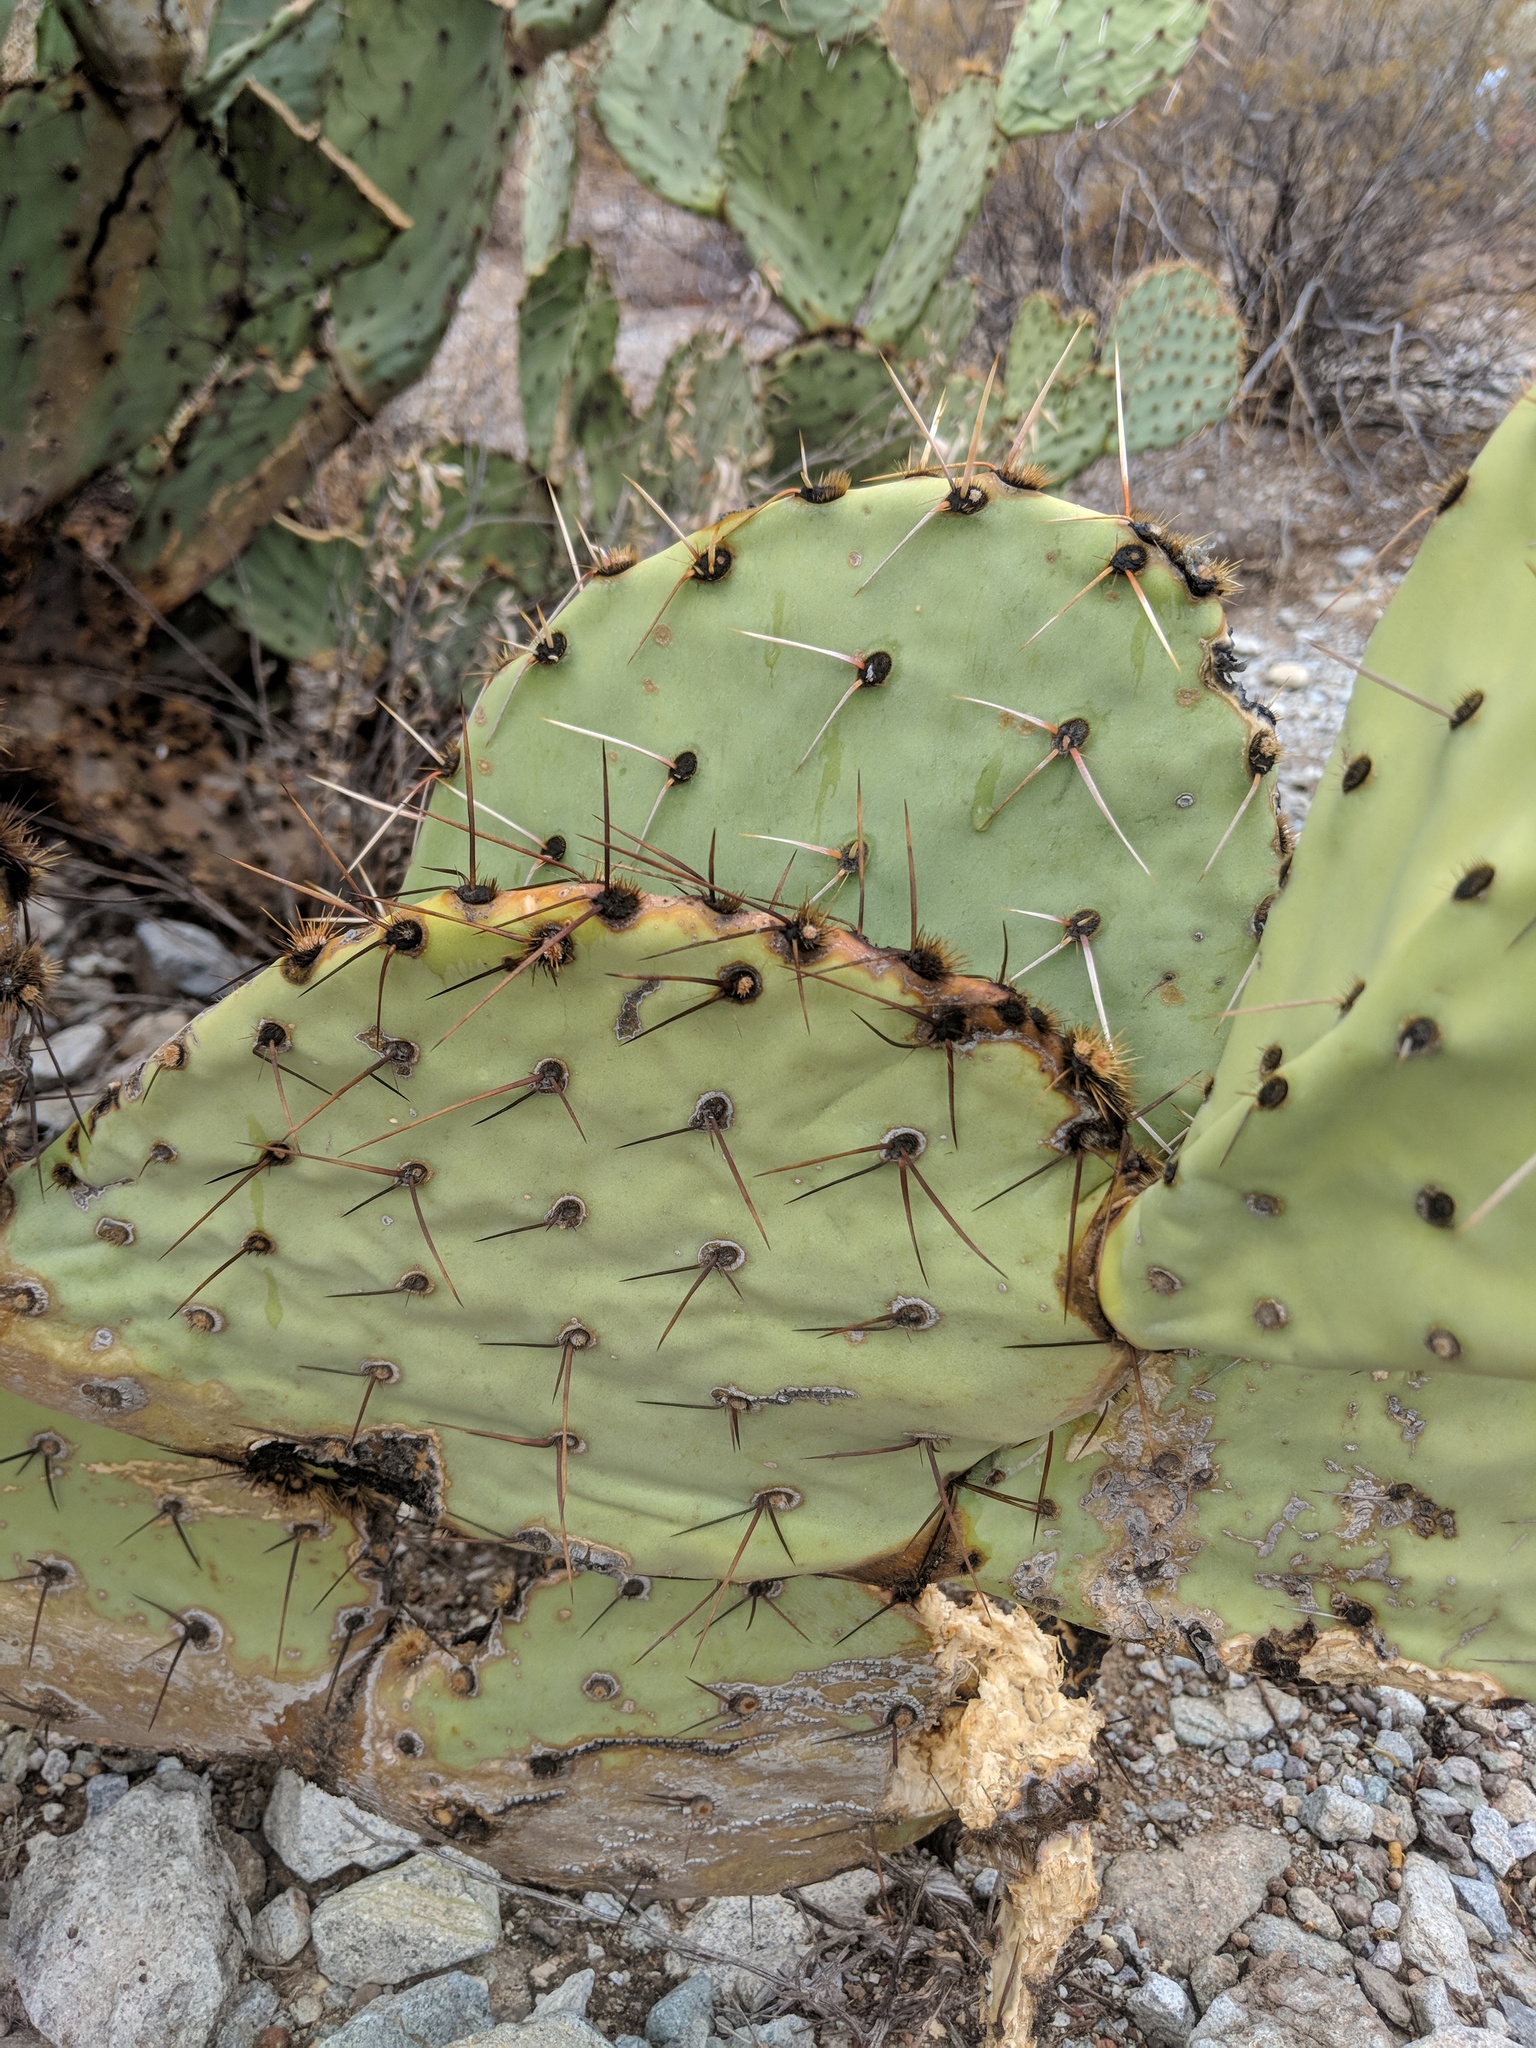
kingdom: Plantae
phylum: Tracheophyta
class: Magnoliopsida
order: Caryophyllales
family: Cactaceae
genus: Opuntia
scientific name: Opuntia engelmannii
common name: Cactus-apple
